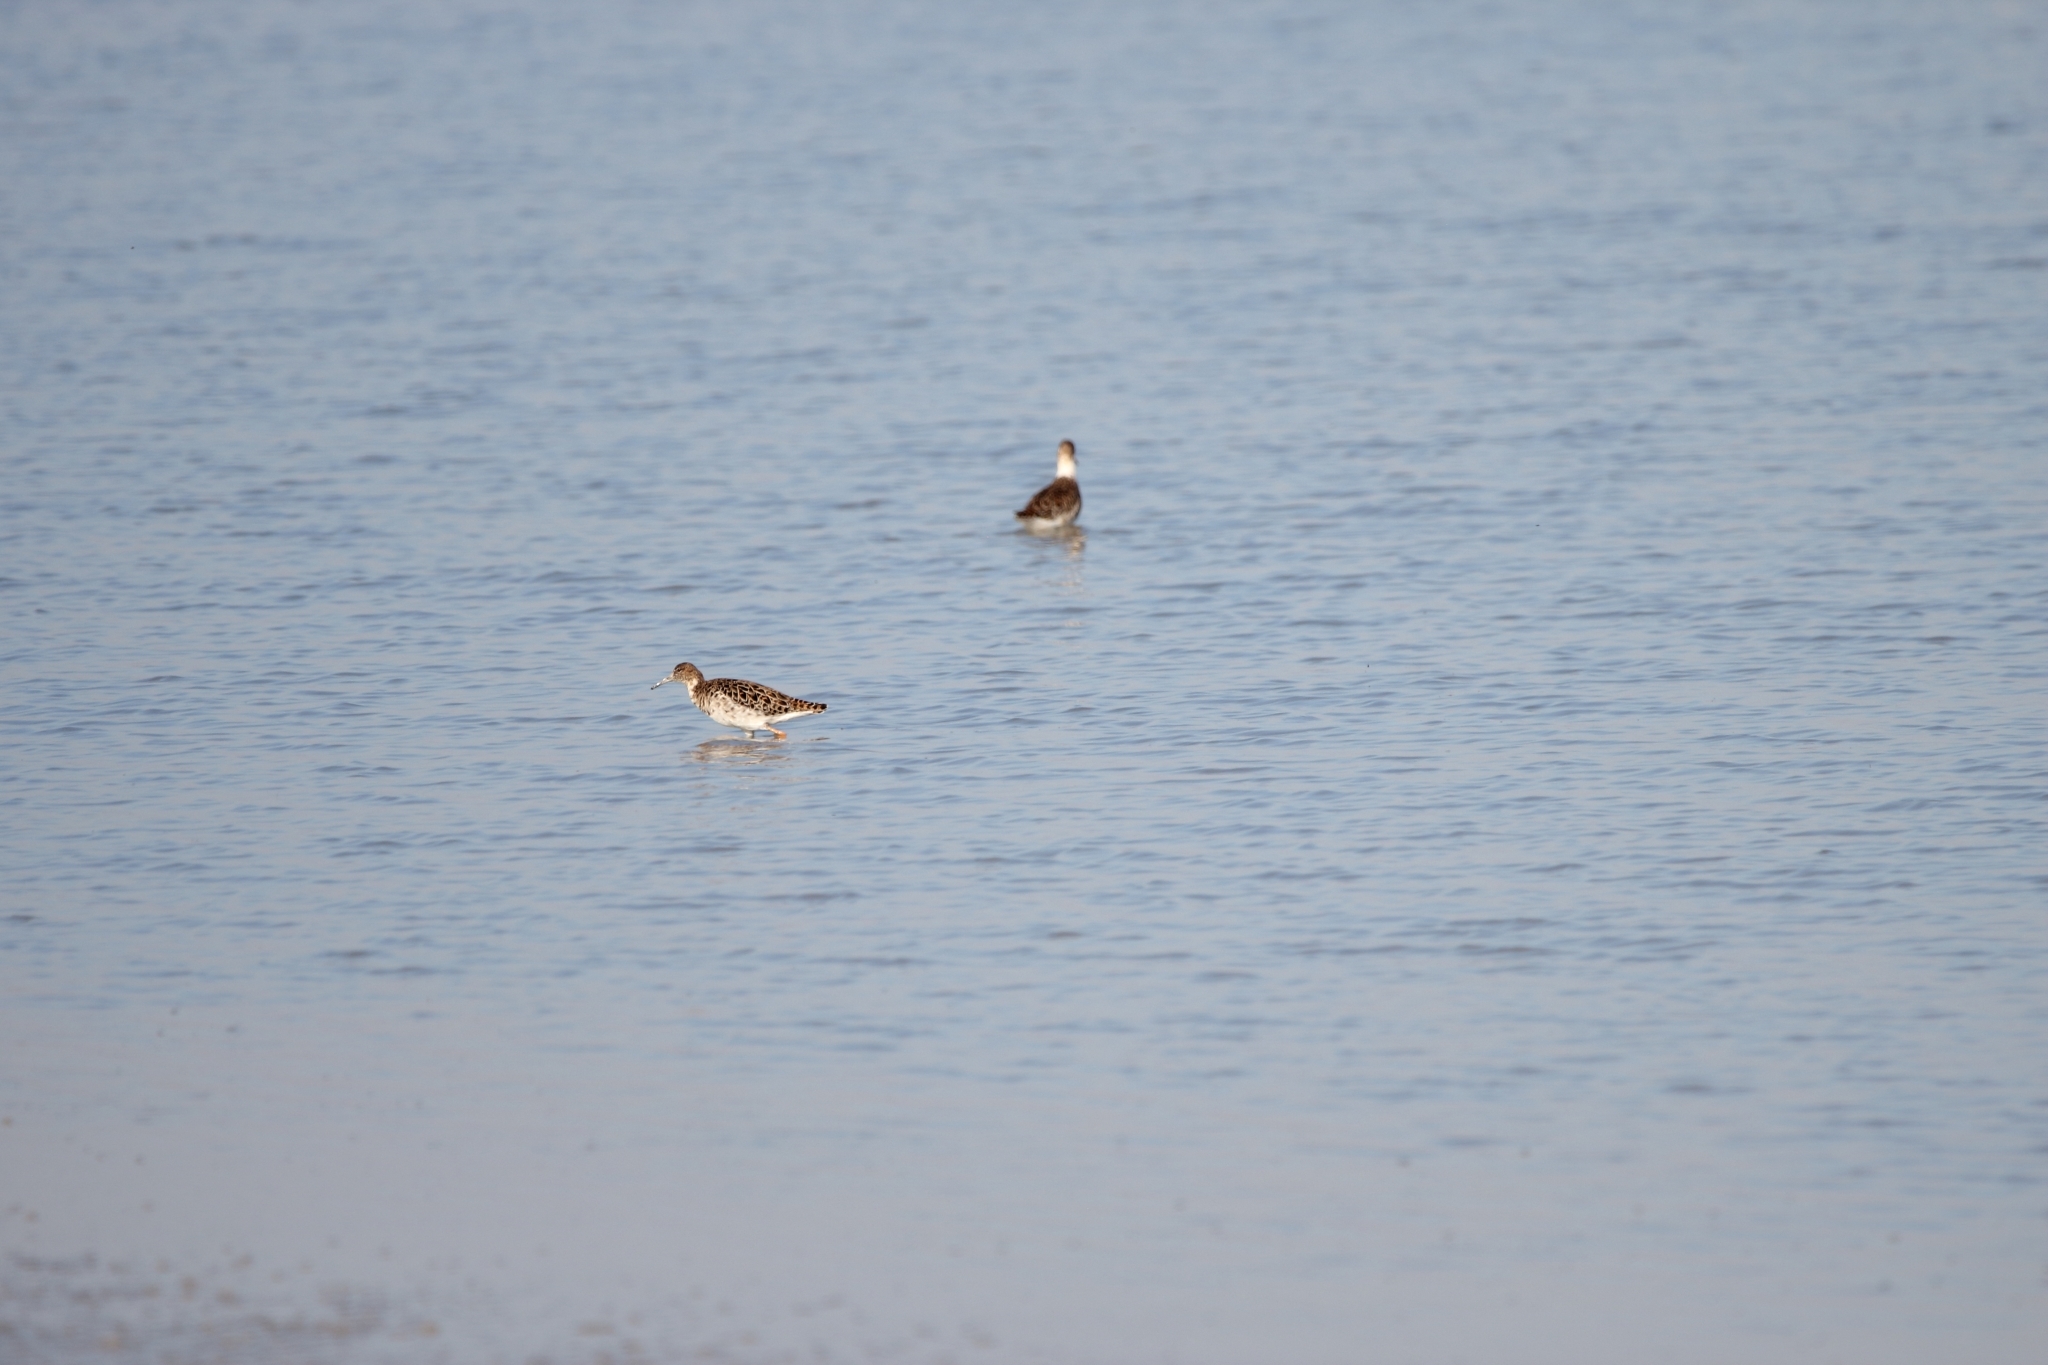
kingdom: Animalia
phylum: Chordata
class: Aves
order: Charadriiformes
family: Scolopacidae
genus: Calidris
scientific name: Calidris pugnax
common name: Ruff
